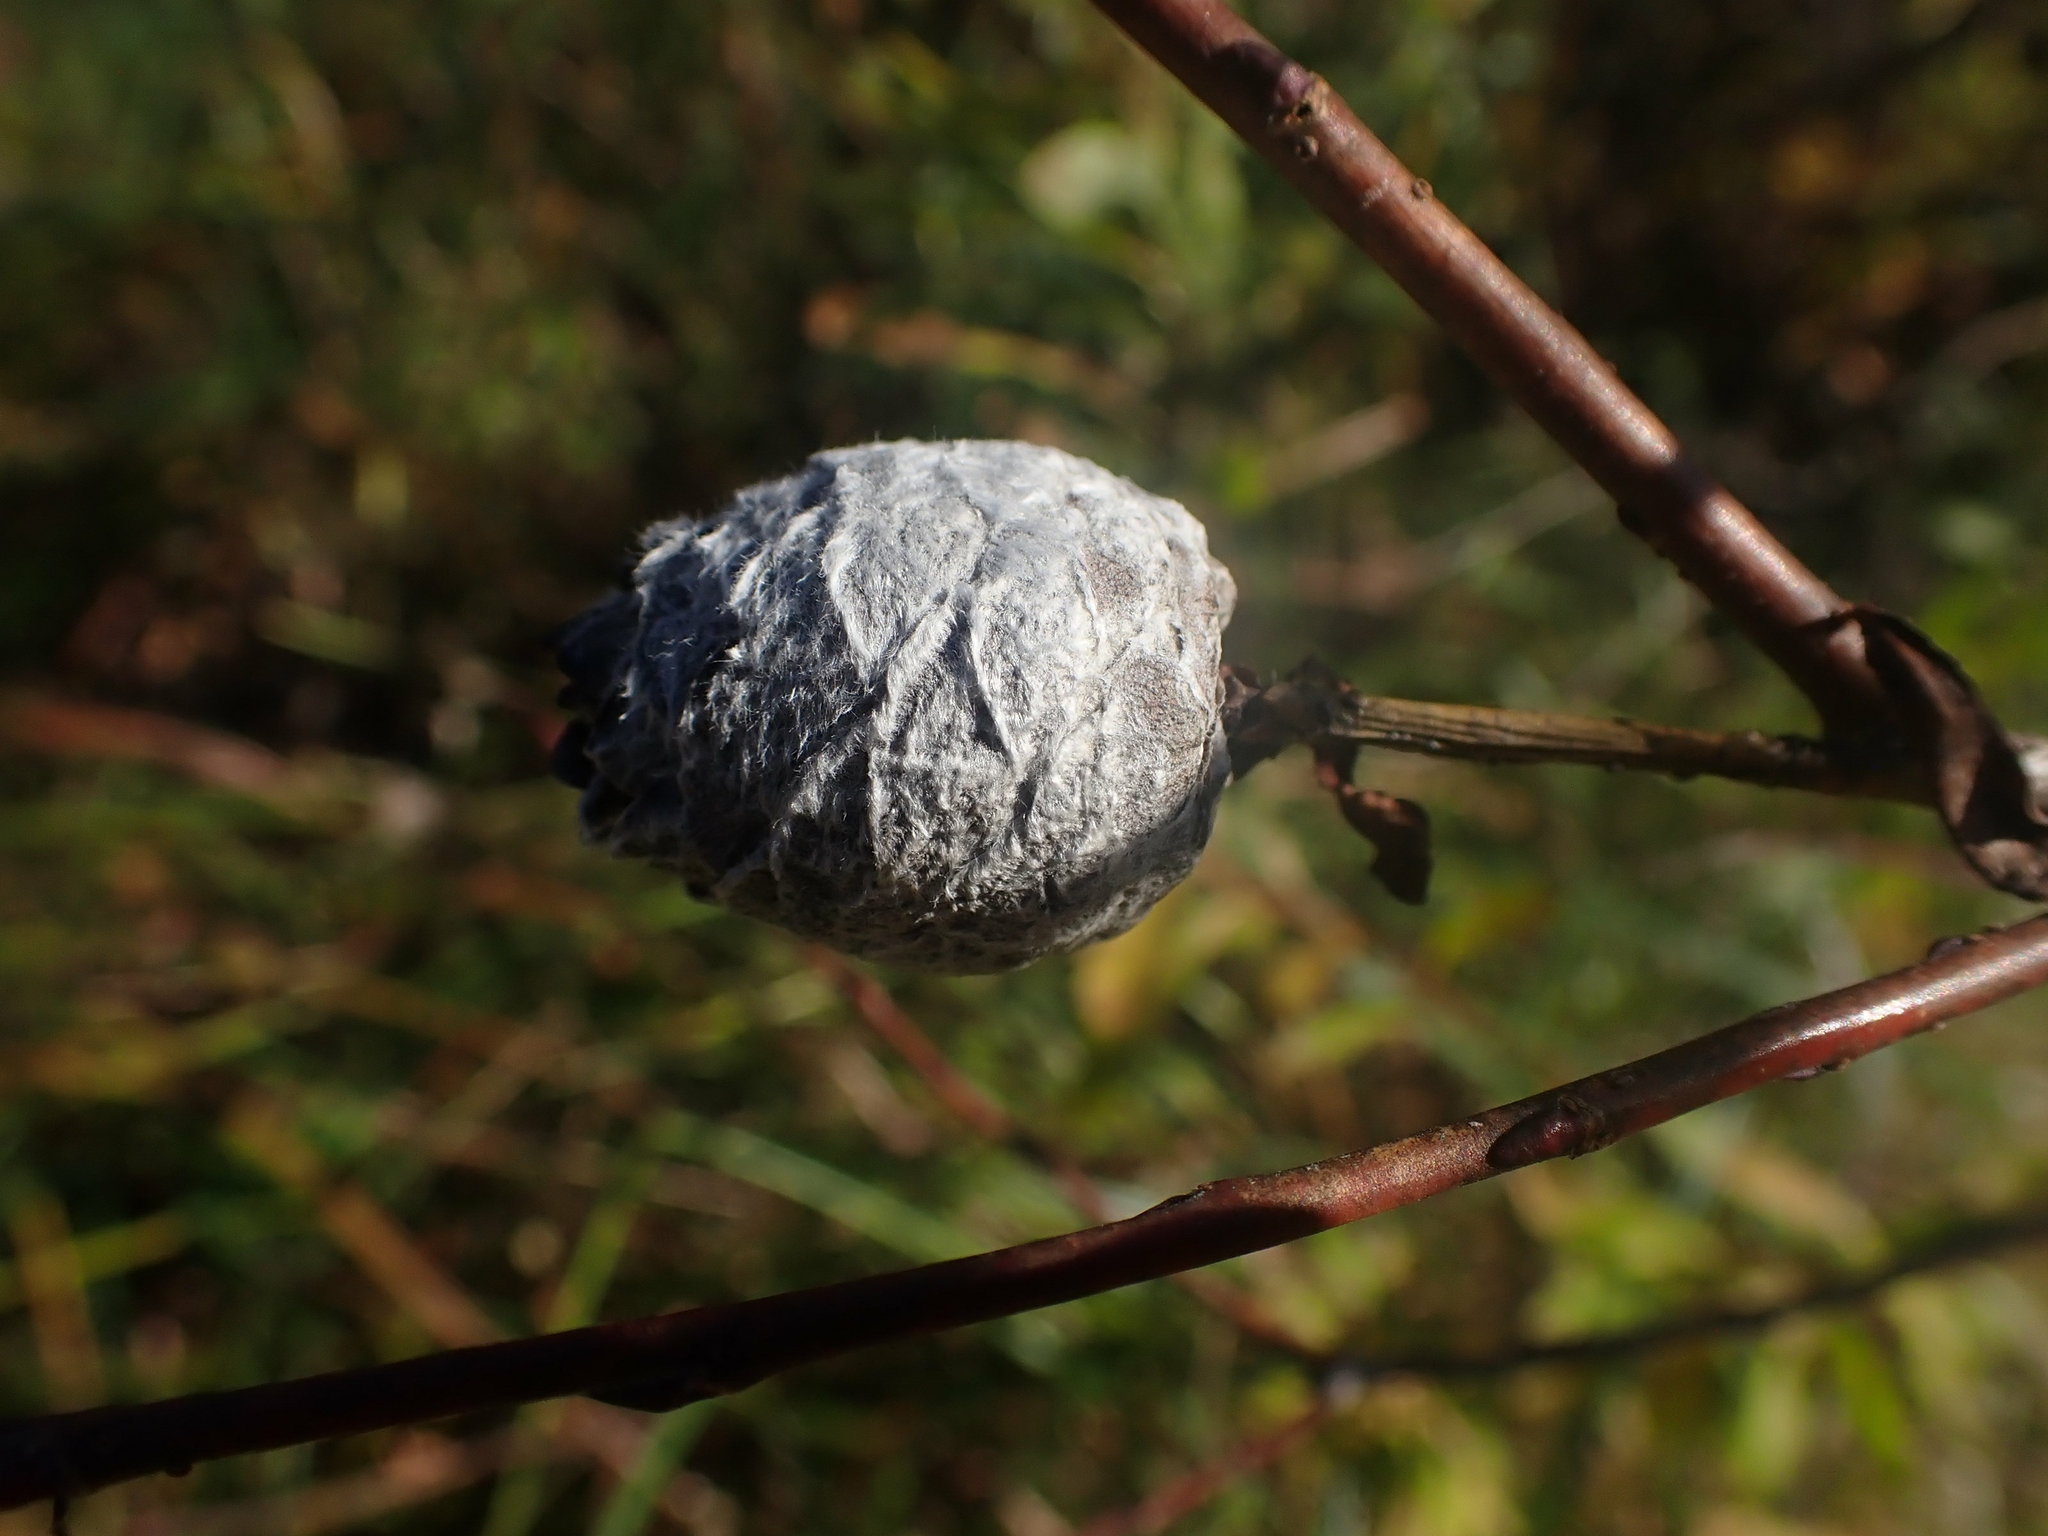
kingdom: Animalia
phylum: Arthropoda
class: Insecta
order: Diptera
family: Cecidomyiidae
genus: Rabdophaga
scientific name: Rabdophaga strobiloides
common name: Willow pinecone gall midge
